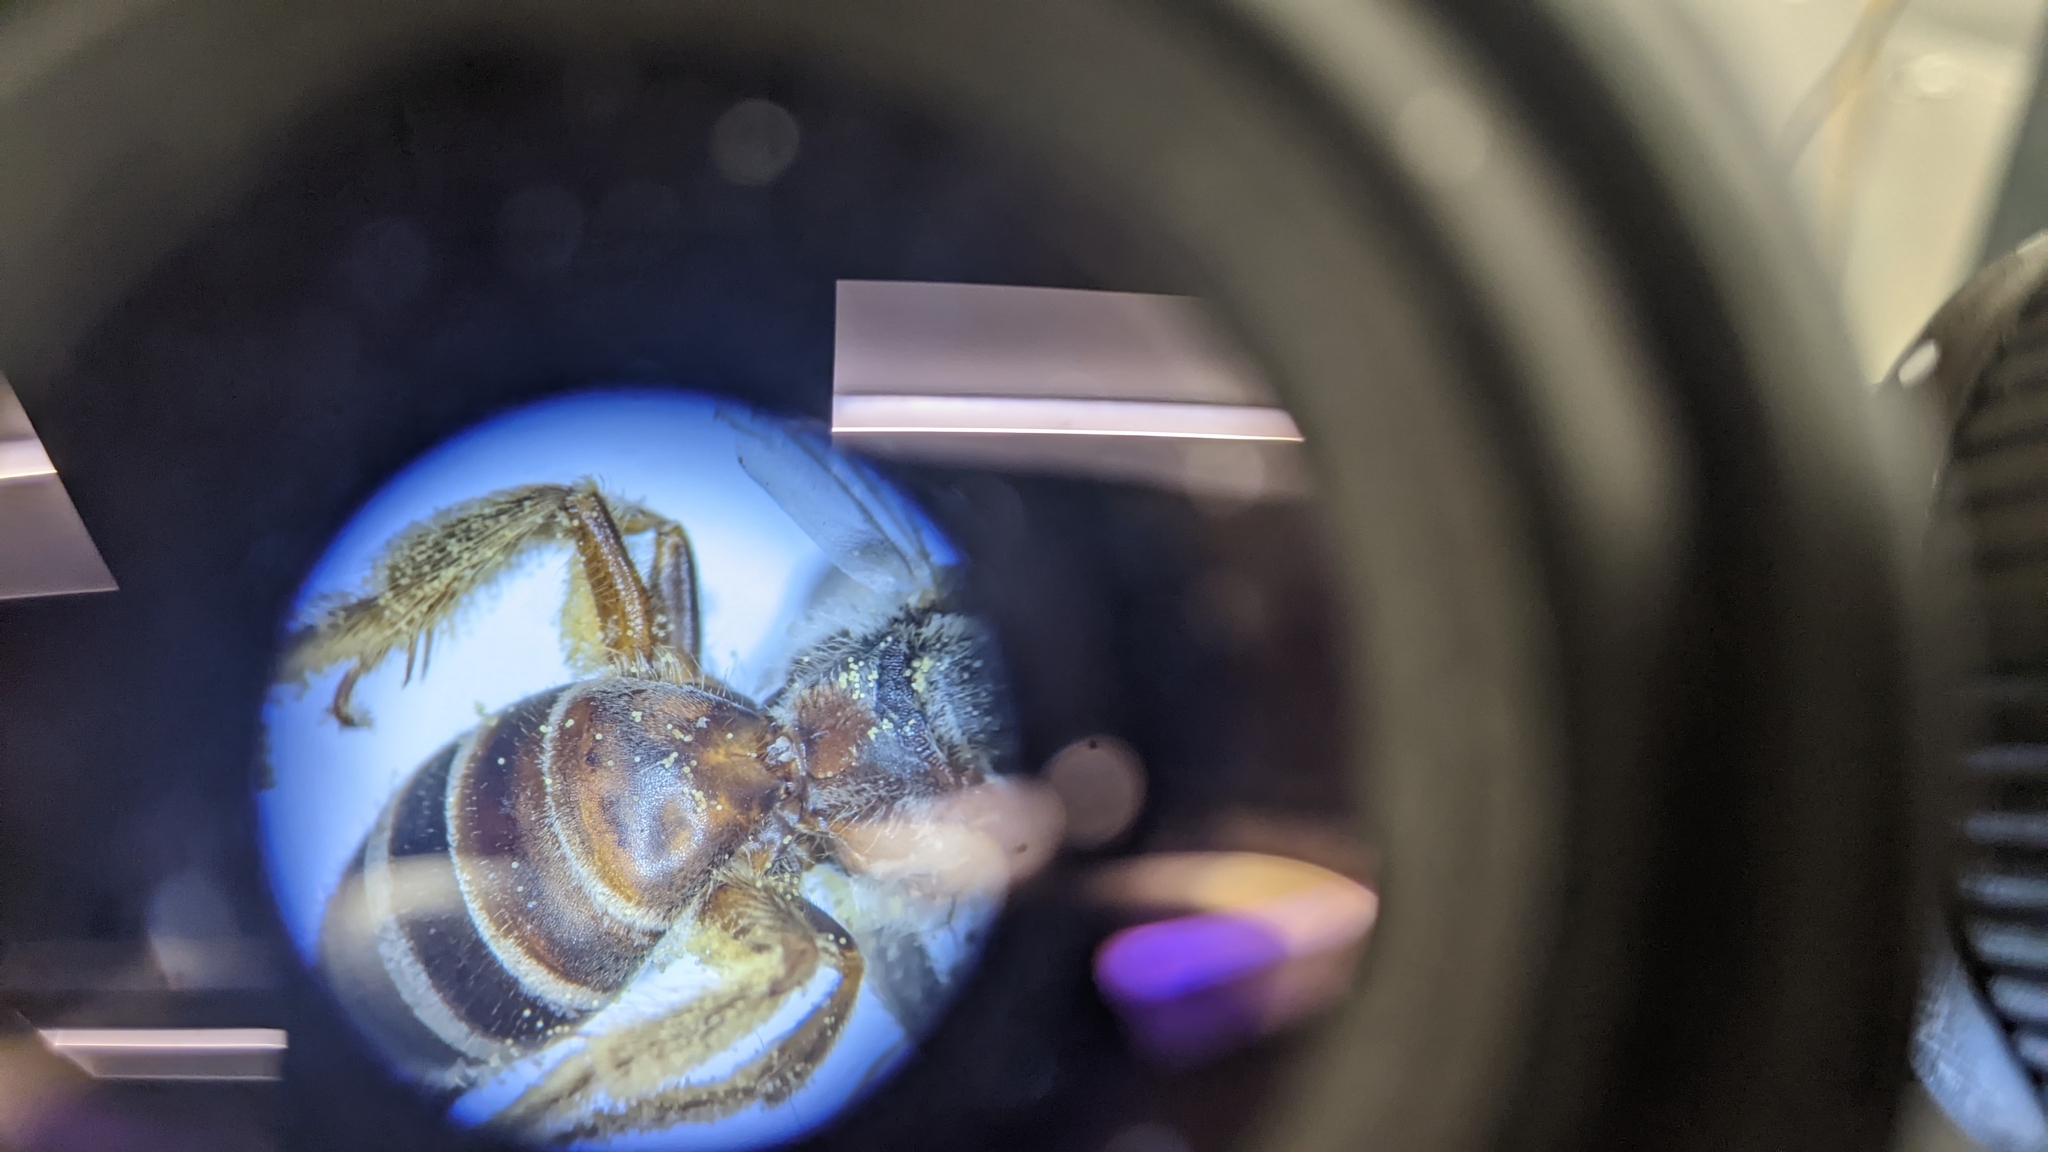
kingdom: Animalia
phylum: Arthropoda
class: Insecta
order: Hymenoptera
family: Halictidae
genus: Halictus
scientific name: Halictus ligatus
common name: Ligated furrow bee
